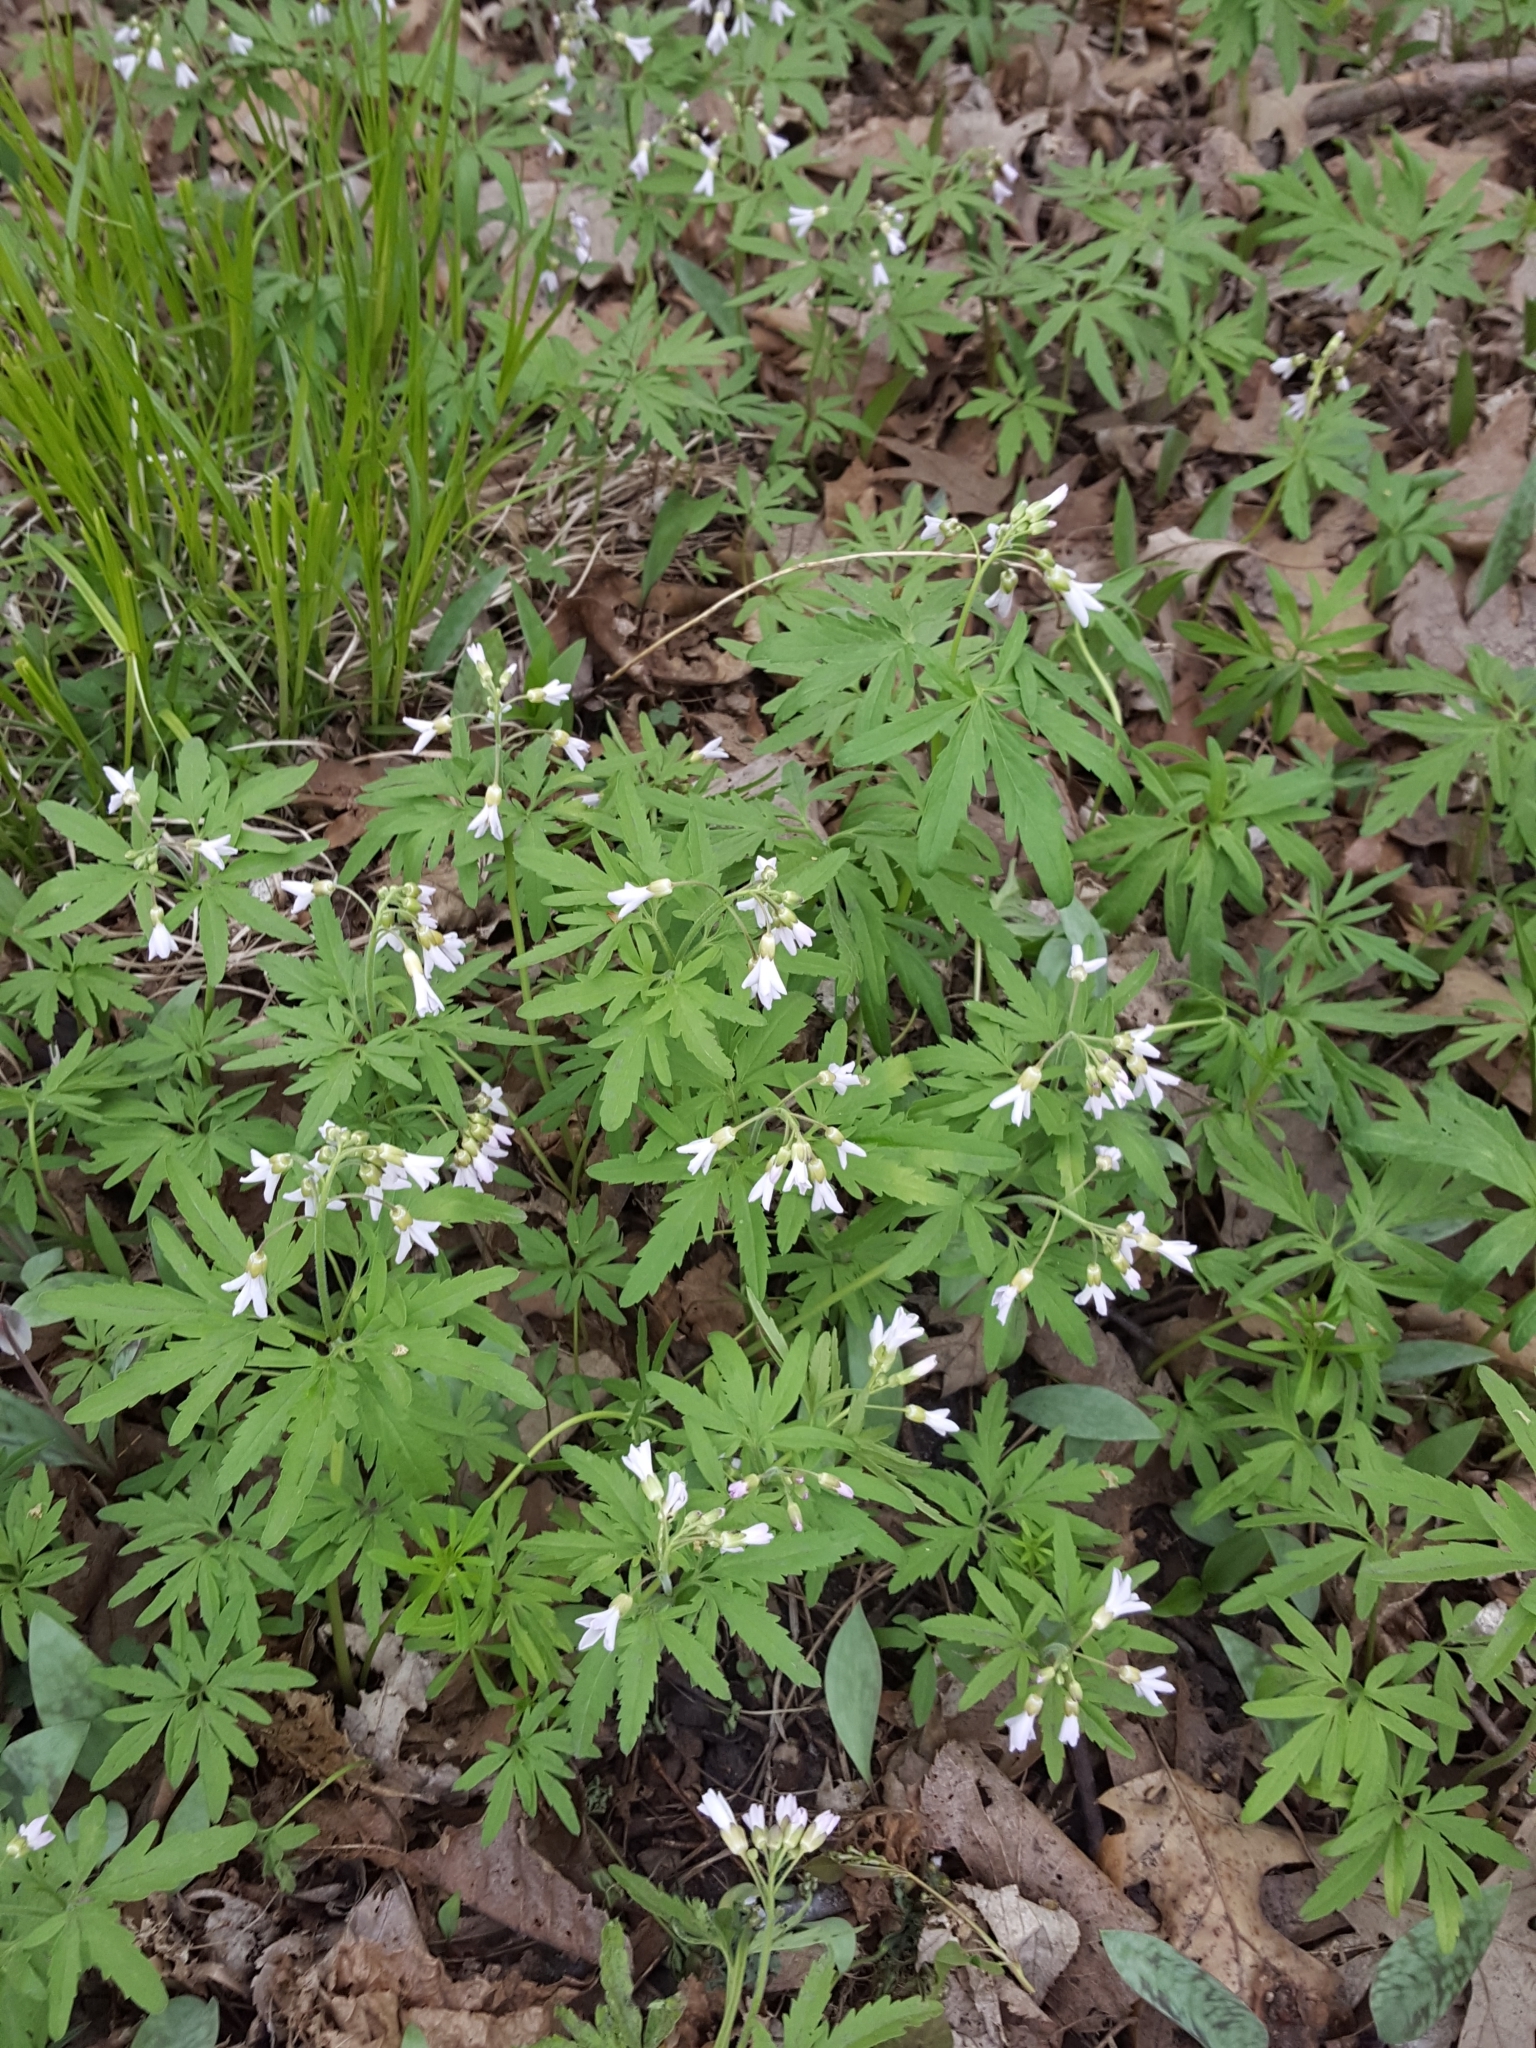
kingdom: Plantae
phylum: Tracheophyta
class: Magnoliopsida
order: Brassicales
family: Brassicaceae
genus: Cardamine
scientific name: Cardamine concatenata
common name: Cut-leaf toothcup
